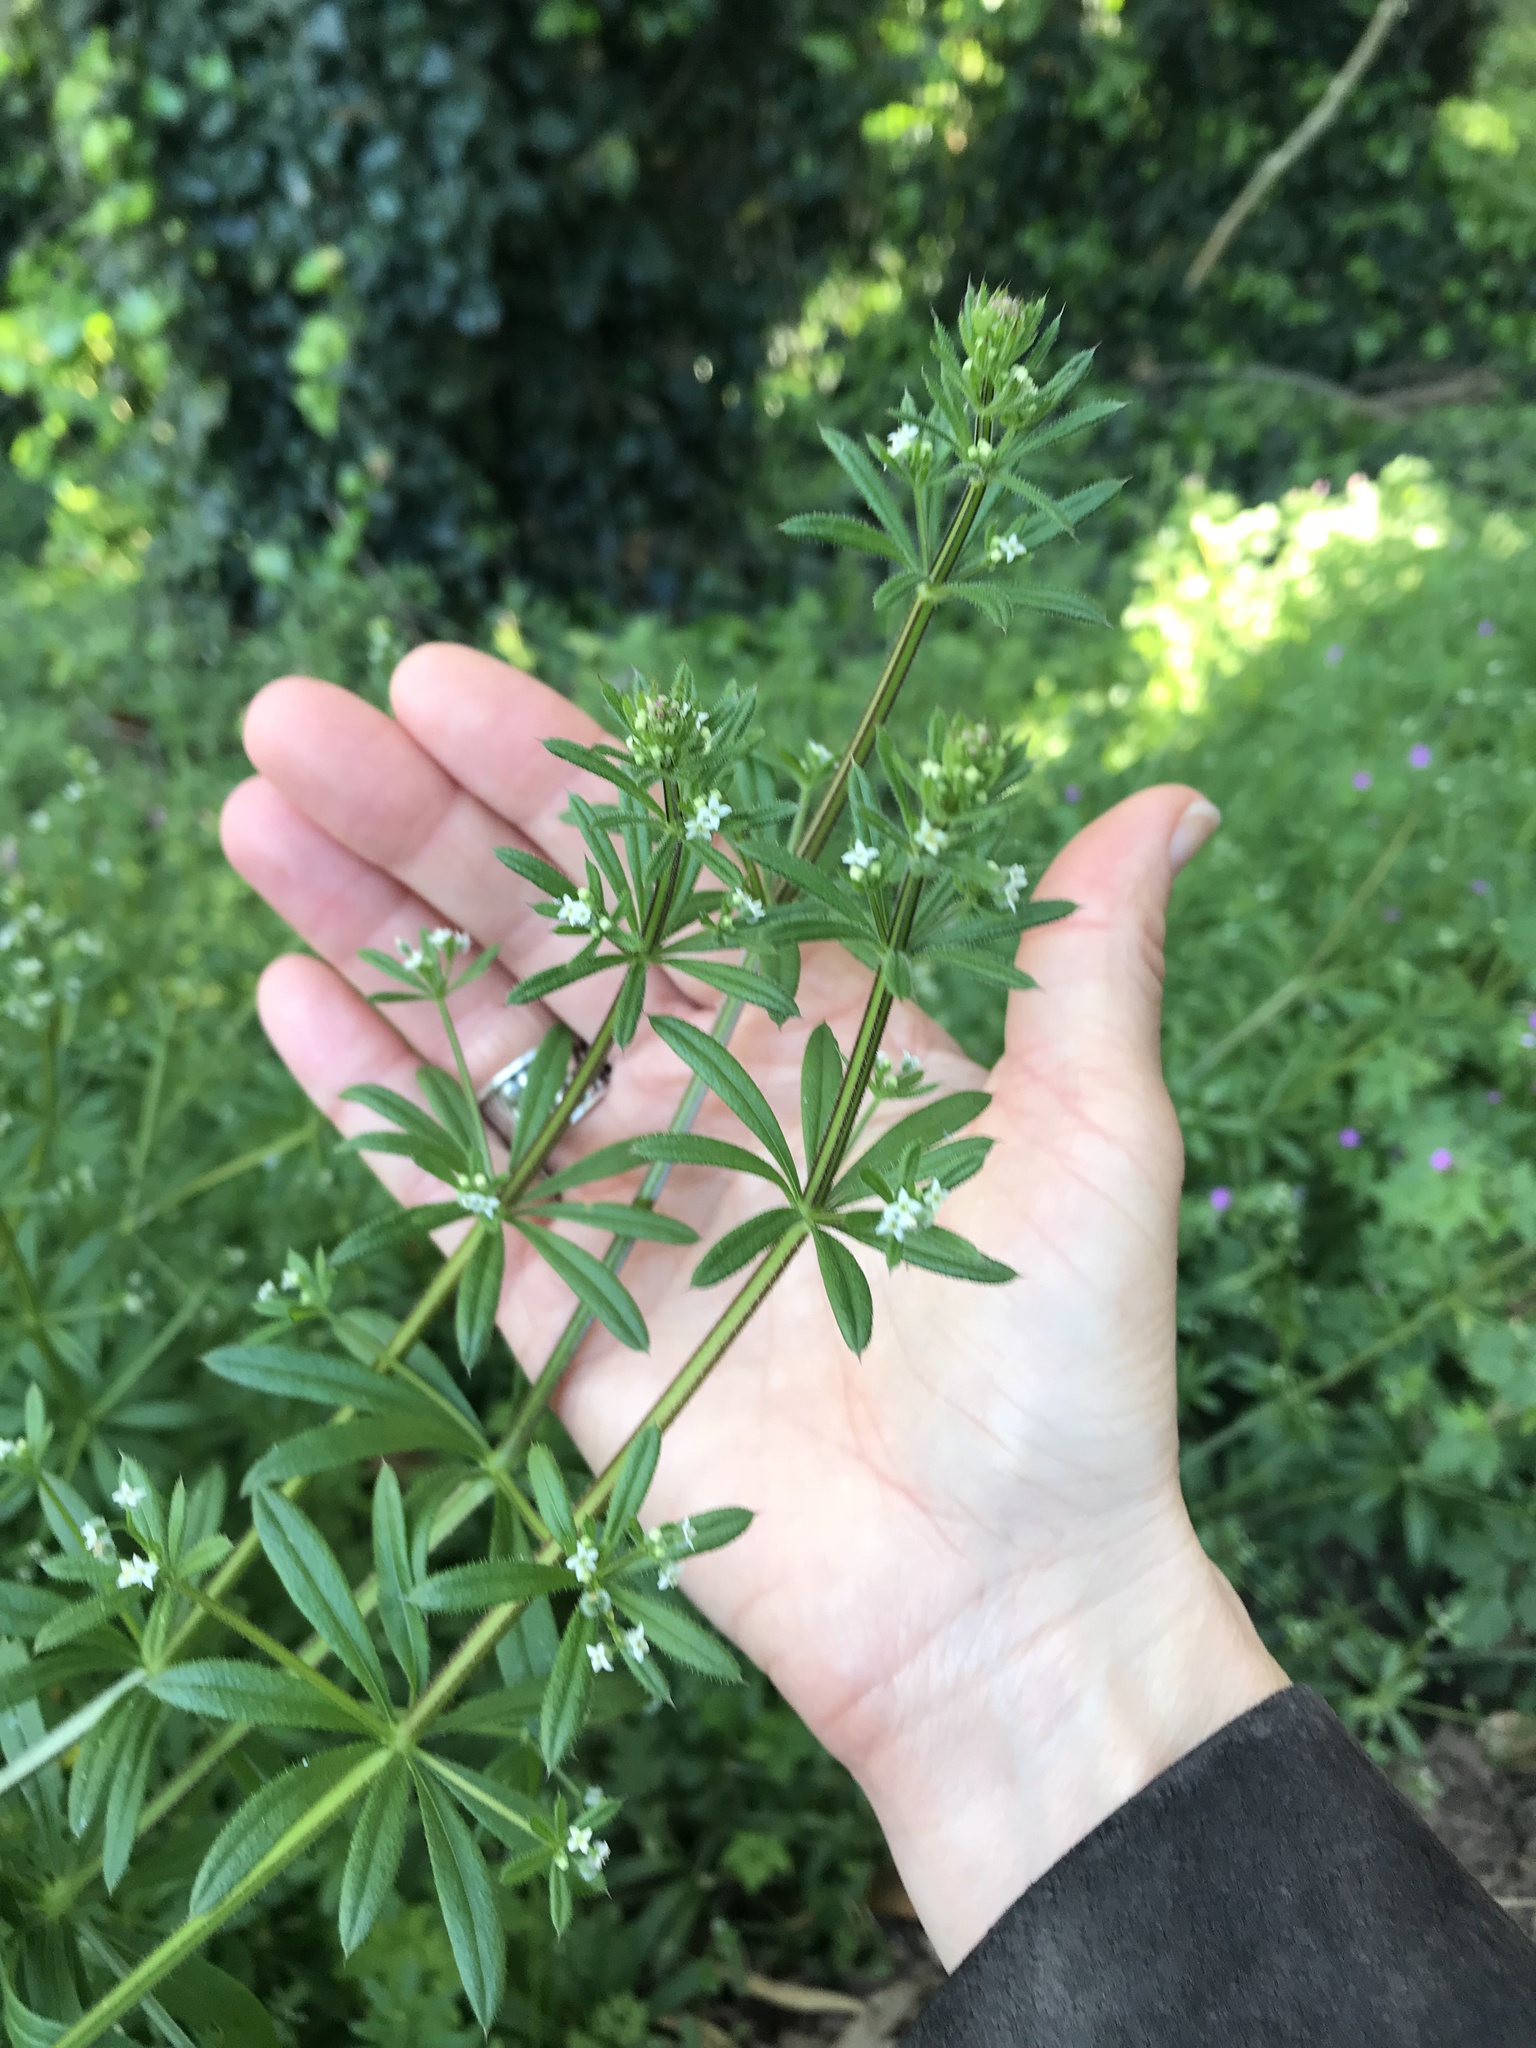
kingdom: Plantae
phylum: Tracheophyta
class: Magnoliopsida
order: Gentianales
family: Rubiaceae
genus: Galium
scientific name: Galium aparine
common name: Cleavers
